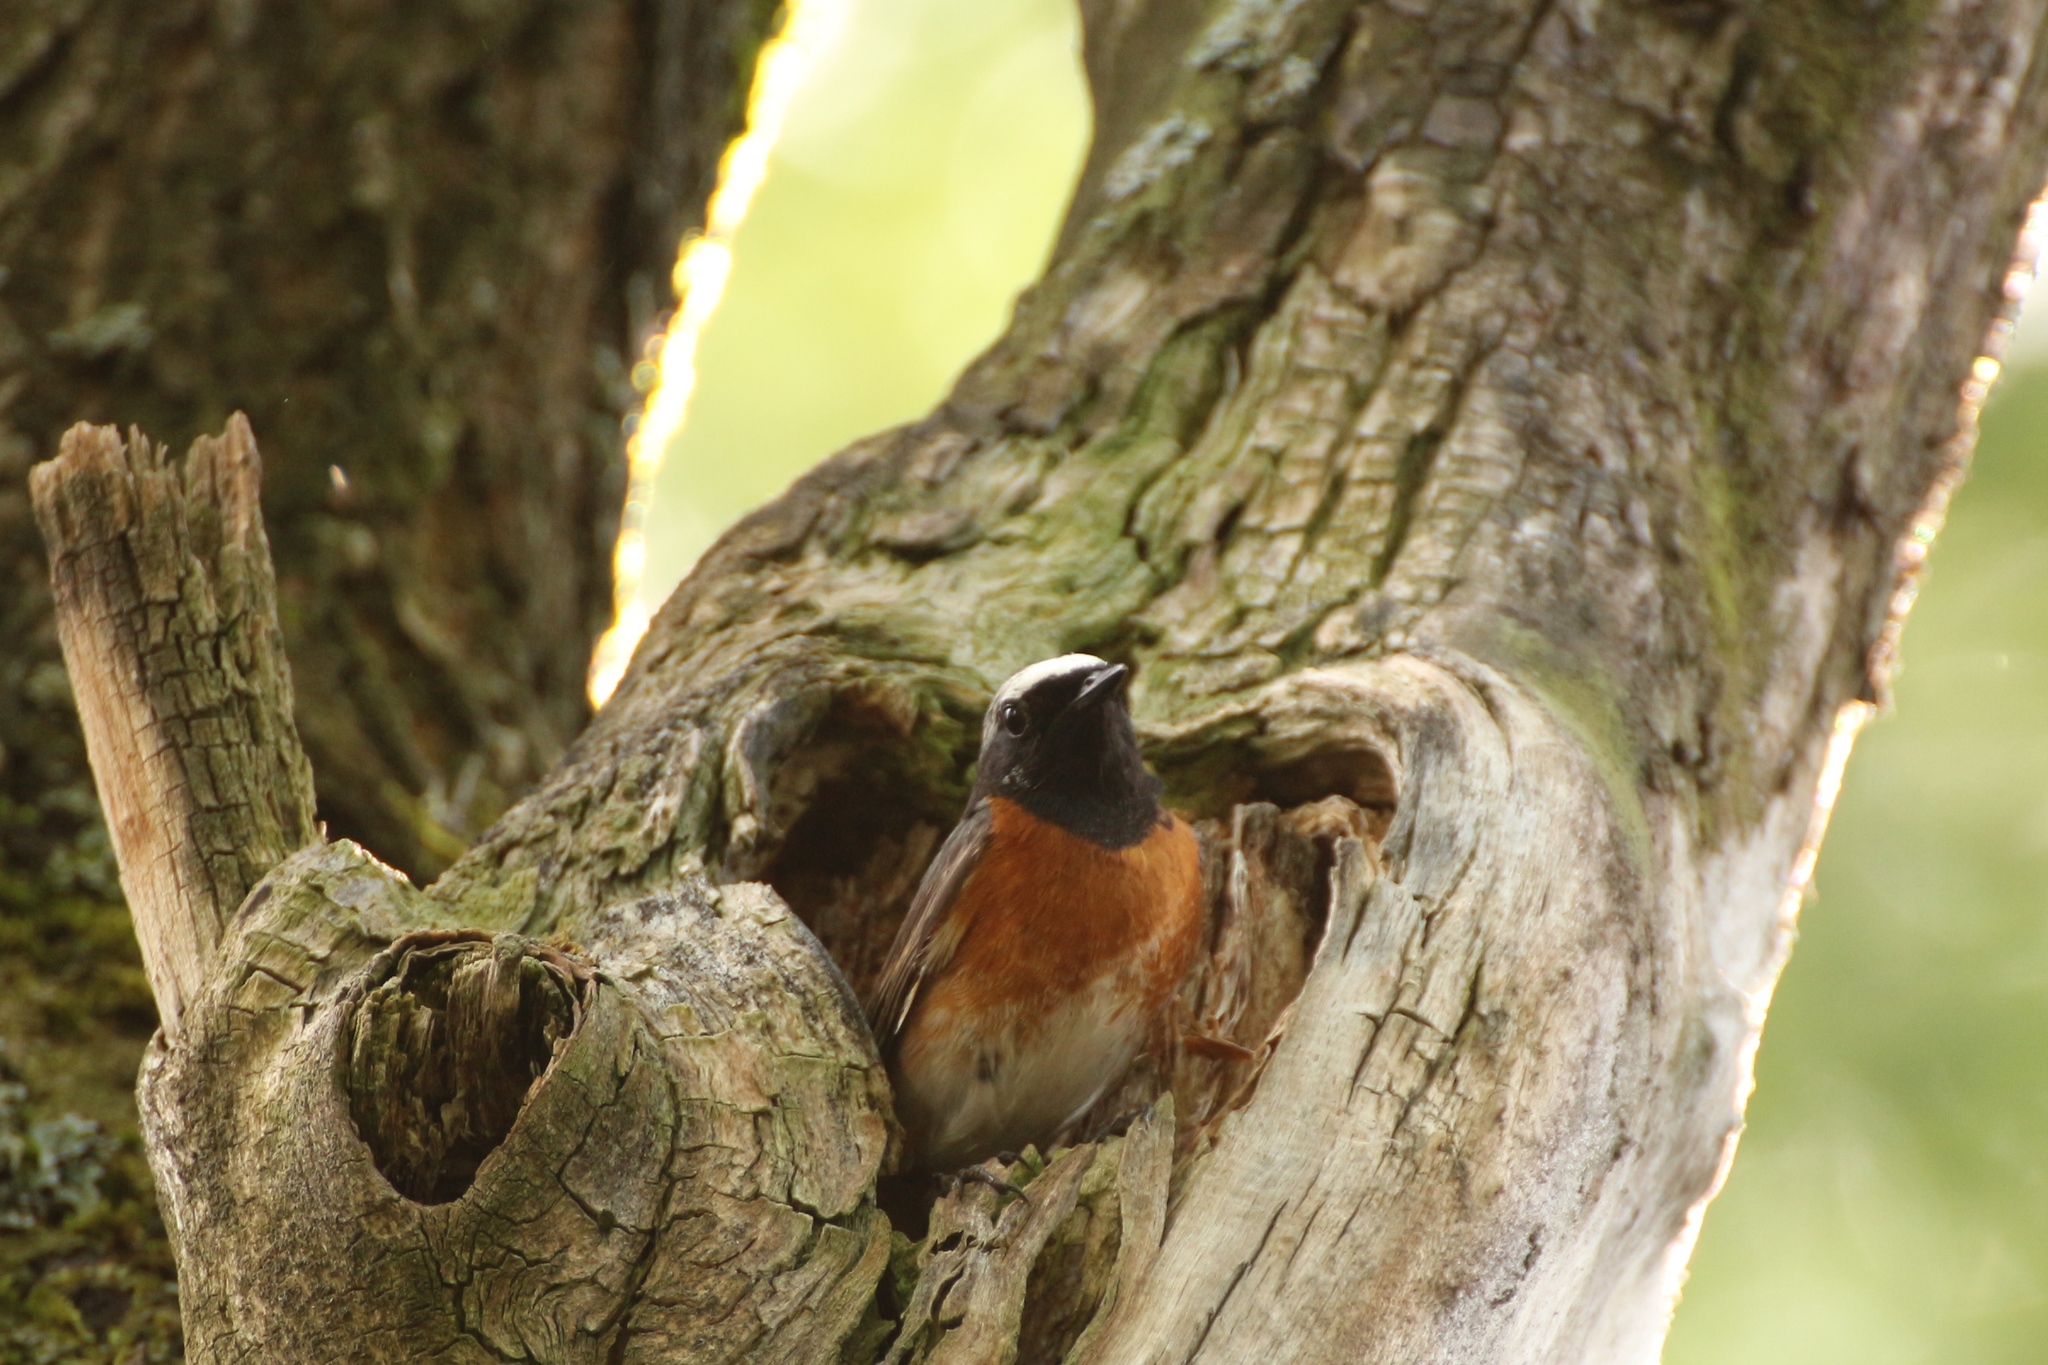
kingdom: Animalia
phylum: Chordata
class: Aves
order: Passeriformes
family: Muscicapidae
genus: Phoenicurus
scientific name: Phoenicurus phoenicurus
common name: Common redstart
